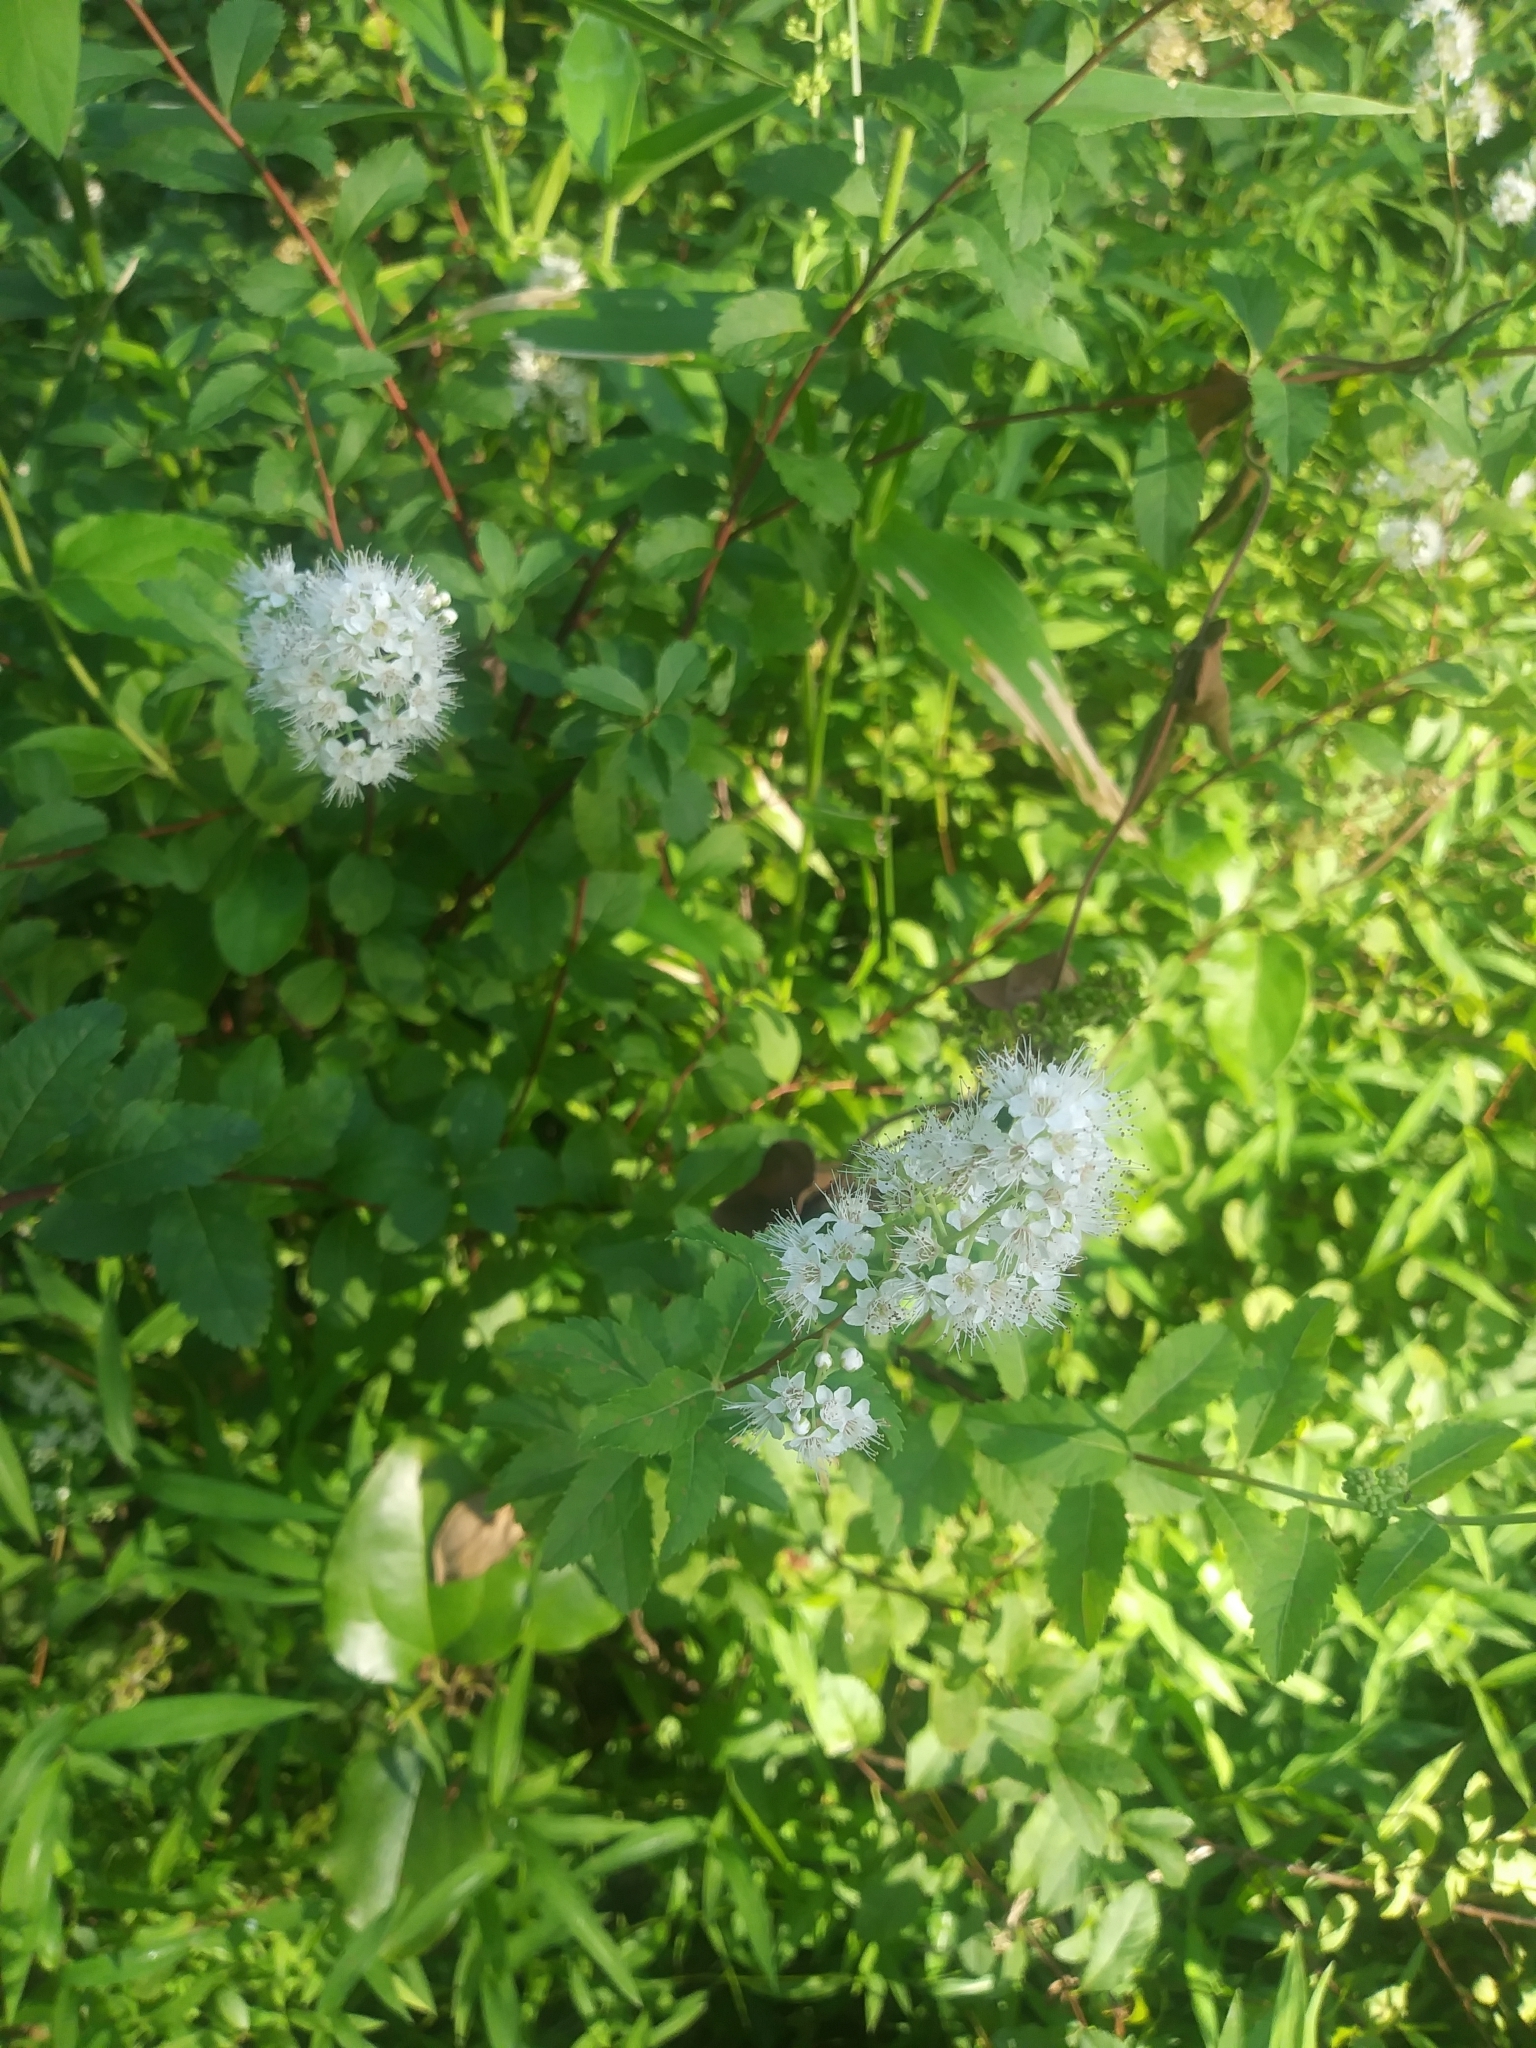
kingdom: Plantae
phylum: Tracheophyta
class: Magnoliopsida
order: Rosales
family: Rosaceae
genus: Spiraea
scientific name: Spiraea alba
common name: Pale bridewort
